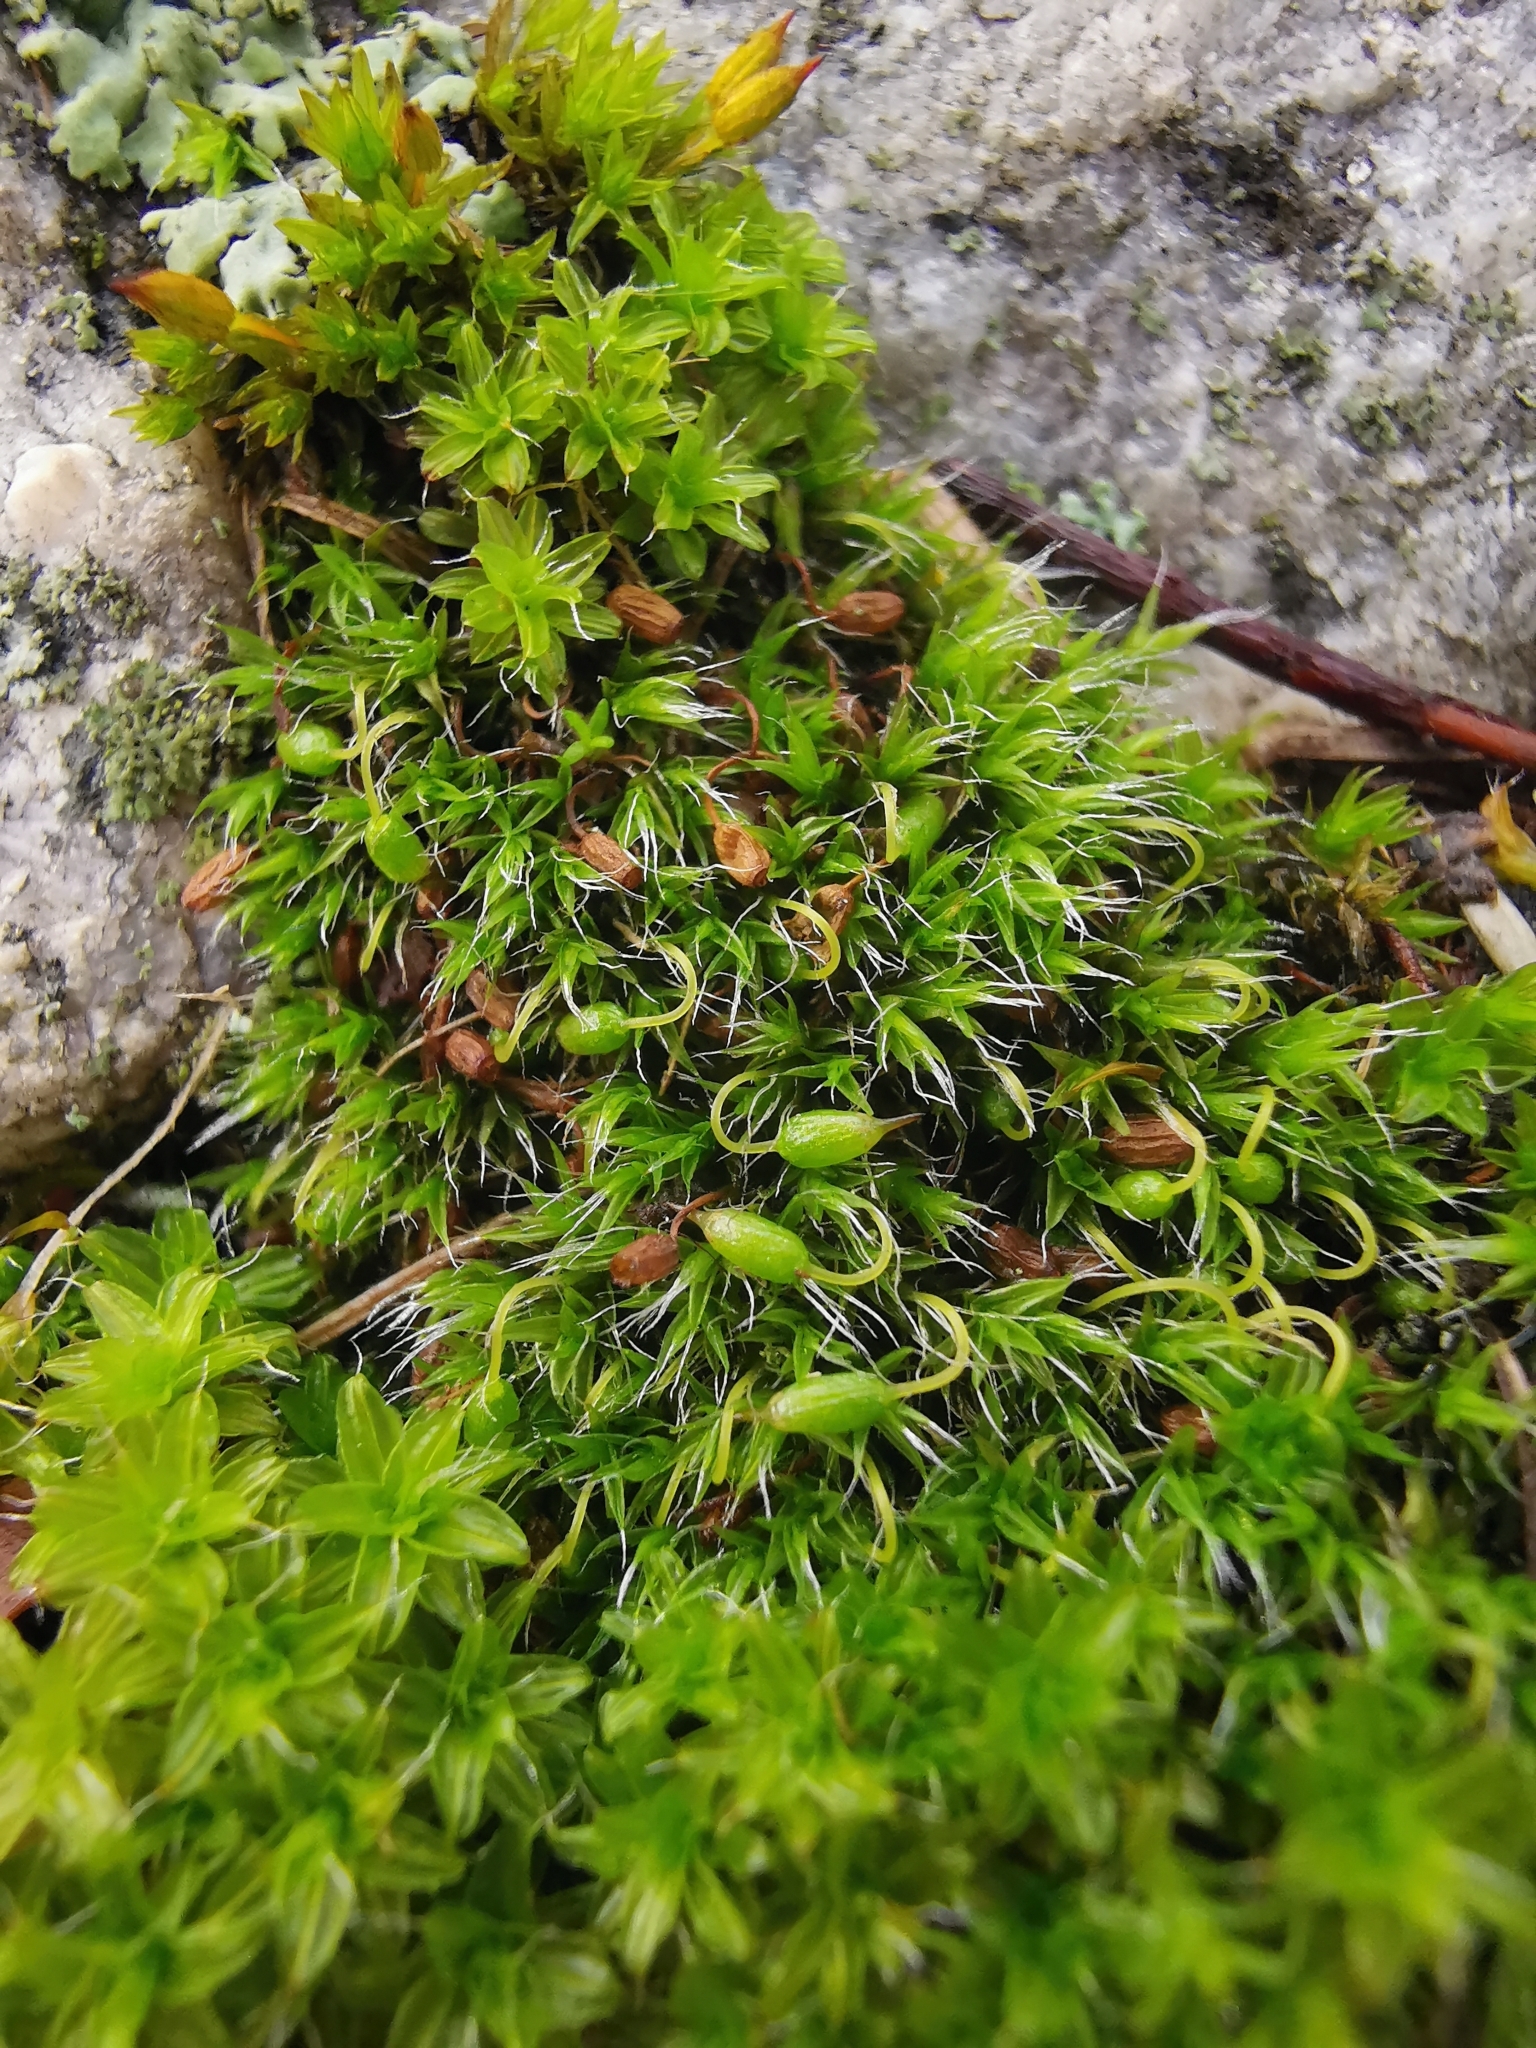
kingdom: Plantae
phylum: Bryophyta
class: Bryopsida
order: Grimmiales
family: Grimmiaceae
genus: Grimmia
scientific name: Grimmia pulvinata
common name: Grey-cushioned grimmia
